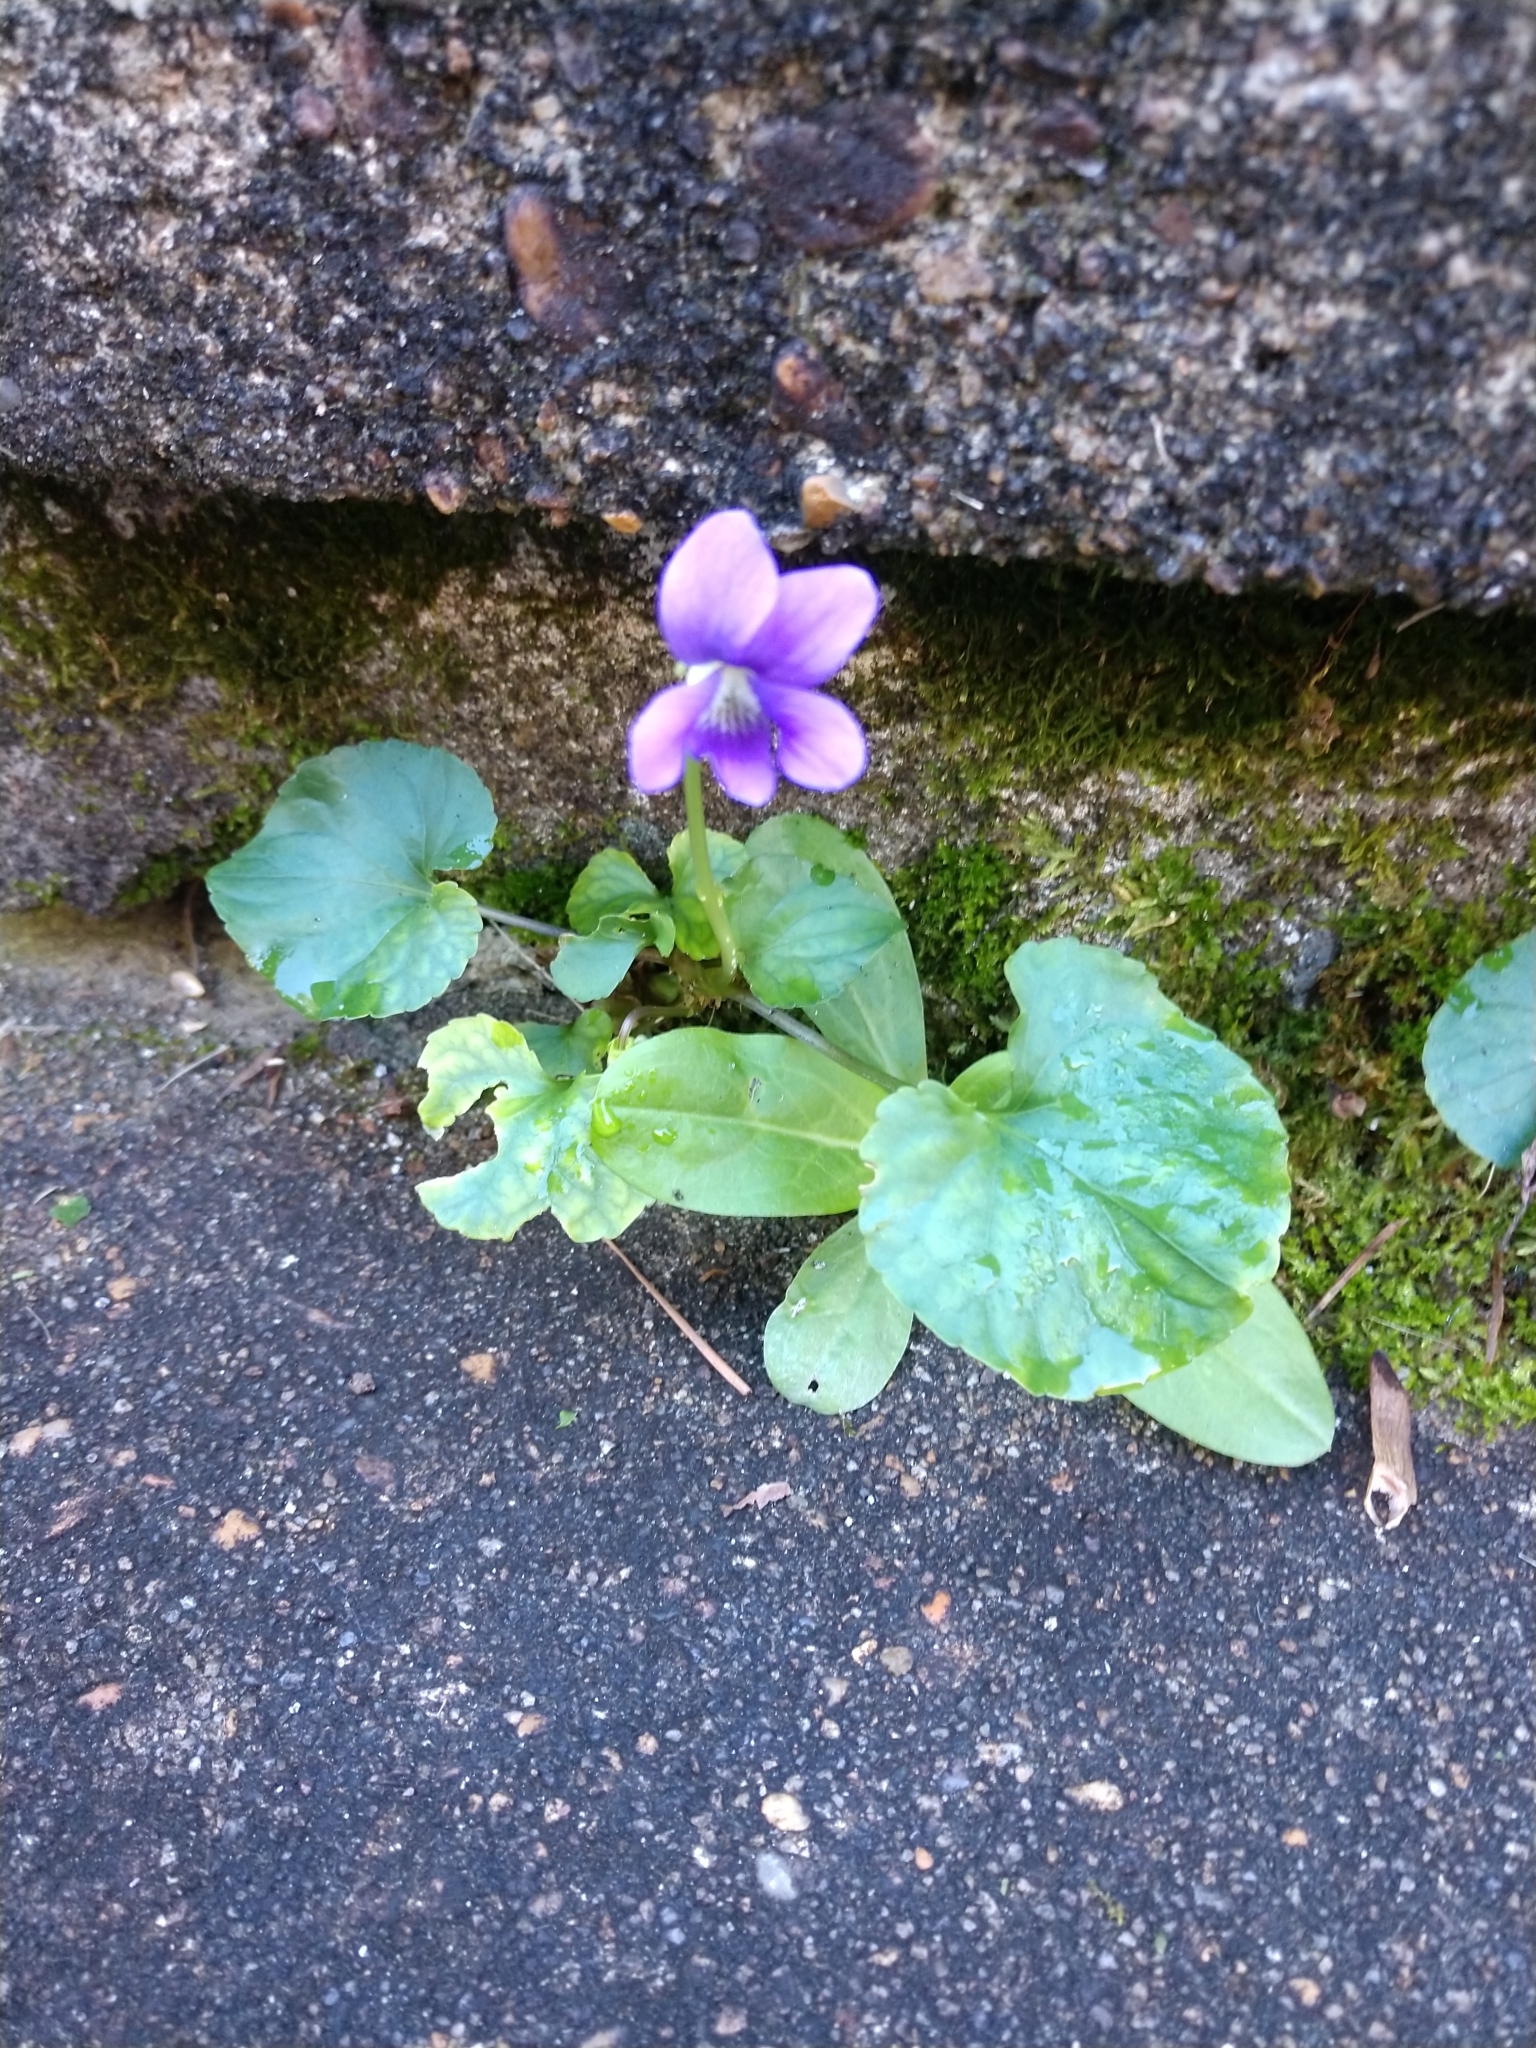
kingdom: Plantae
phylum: Tracheophyta
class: Magnoliopsida
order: Malpighiales
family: Violaceae
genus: Viola
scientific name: Viola sororia
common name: Dooryard violet
